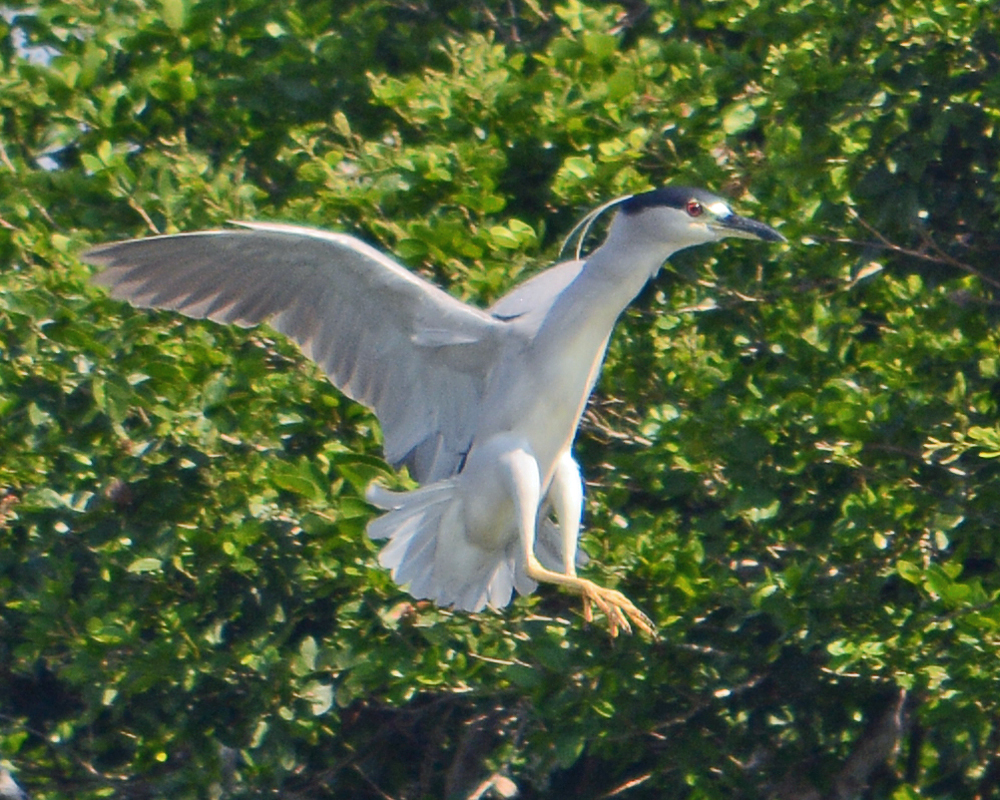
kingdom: Animalia
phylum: Chordata
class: Aves
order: Pelecaniformes
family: Ardeidae
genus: Nycticorax
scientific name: Nycticorax nycticorax
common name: Black-crowned night heron
